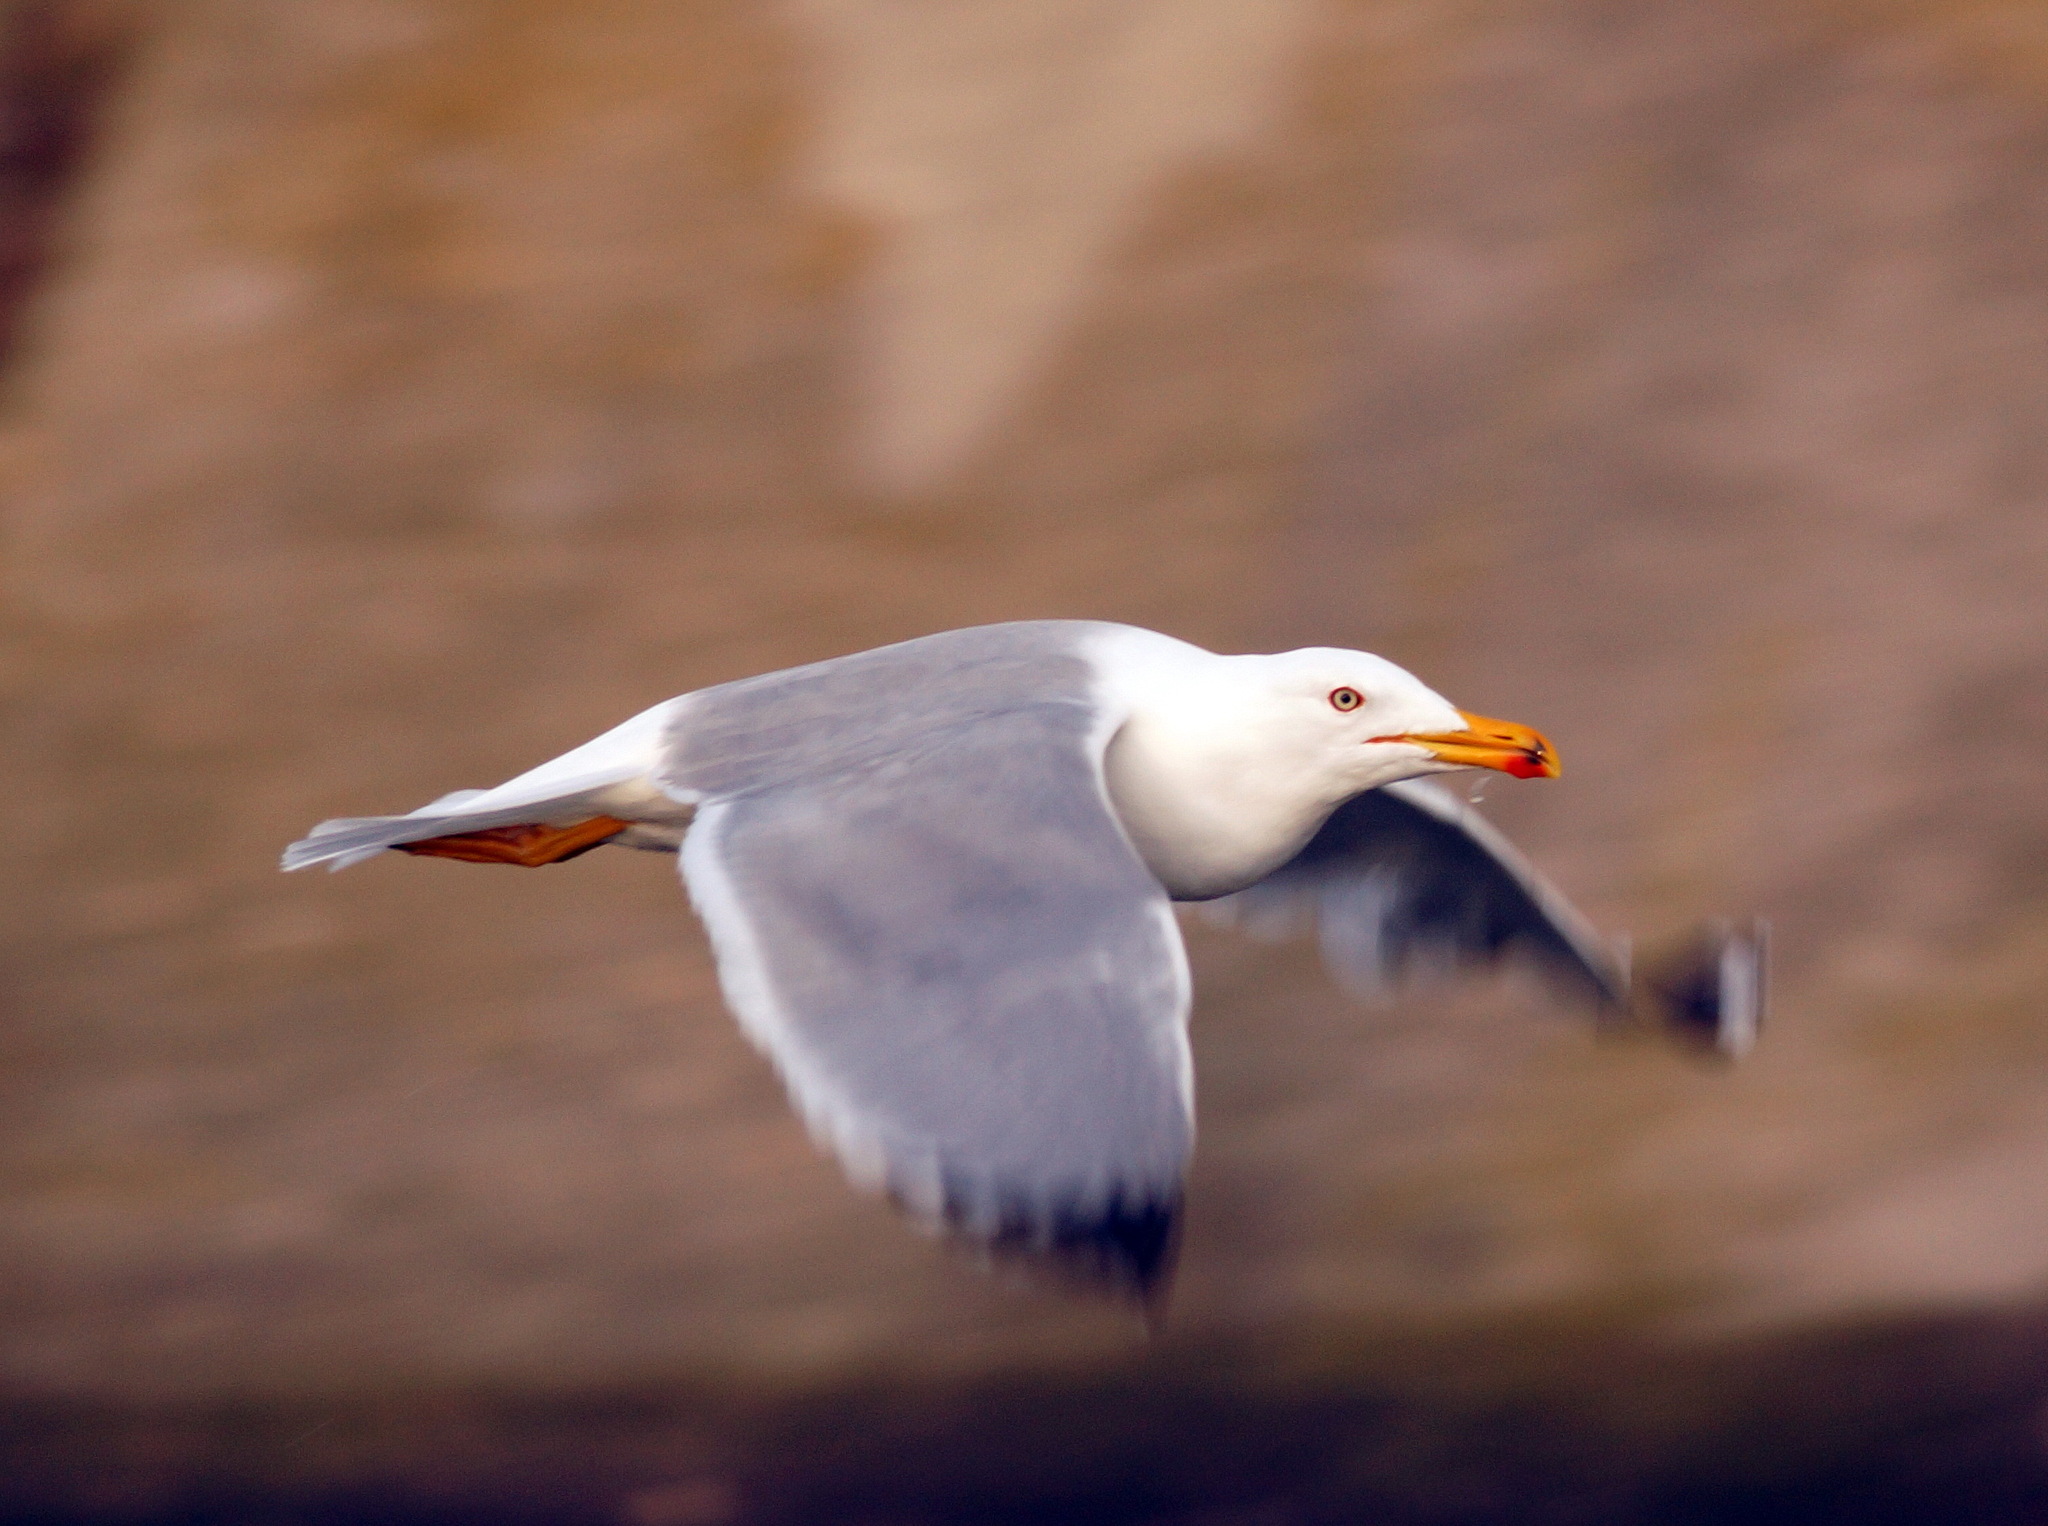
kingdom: Animalia
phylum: Chordata
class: Aves
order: Charadriiformes
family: Laridae
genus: Larus
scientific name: Larus michahellis
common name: Yellow-legged gull
